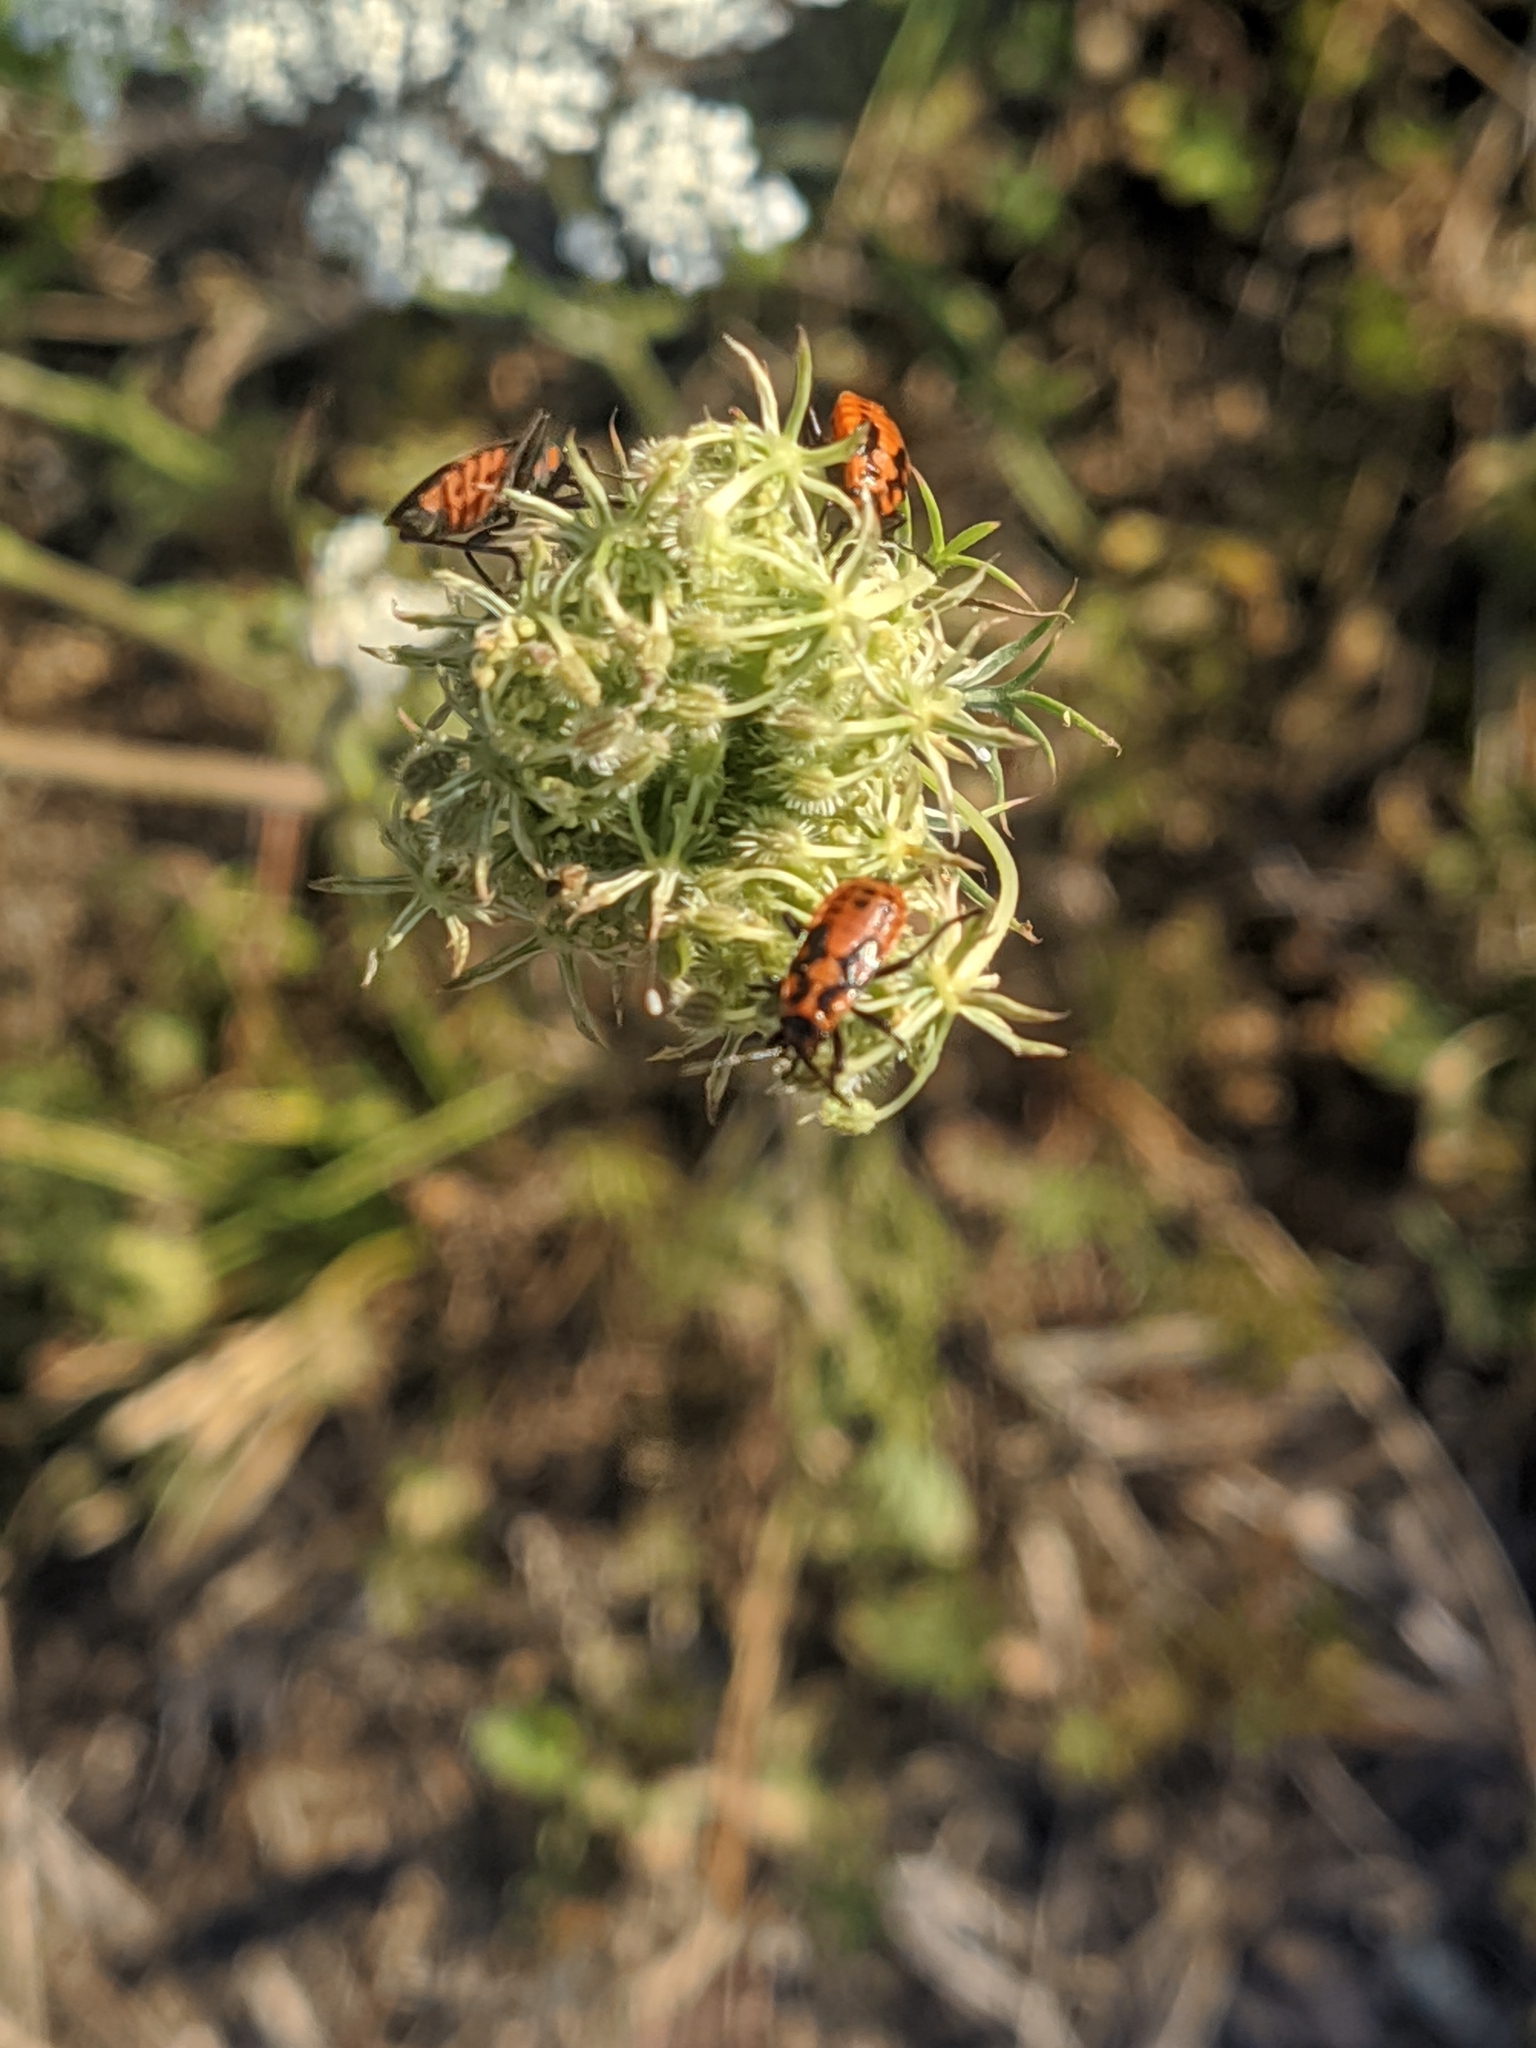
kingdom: Animalia
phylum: Arthropoda
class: Insecta
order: Hemiptera
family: Lygaeidae
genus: Spilostethus
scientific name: Spilostethus saxatilis
